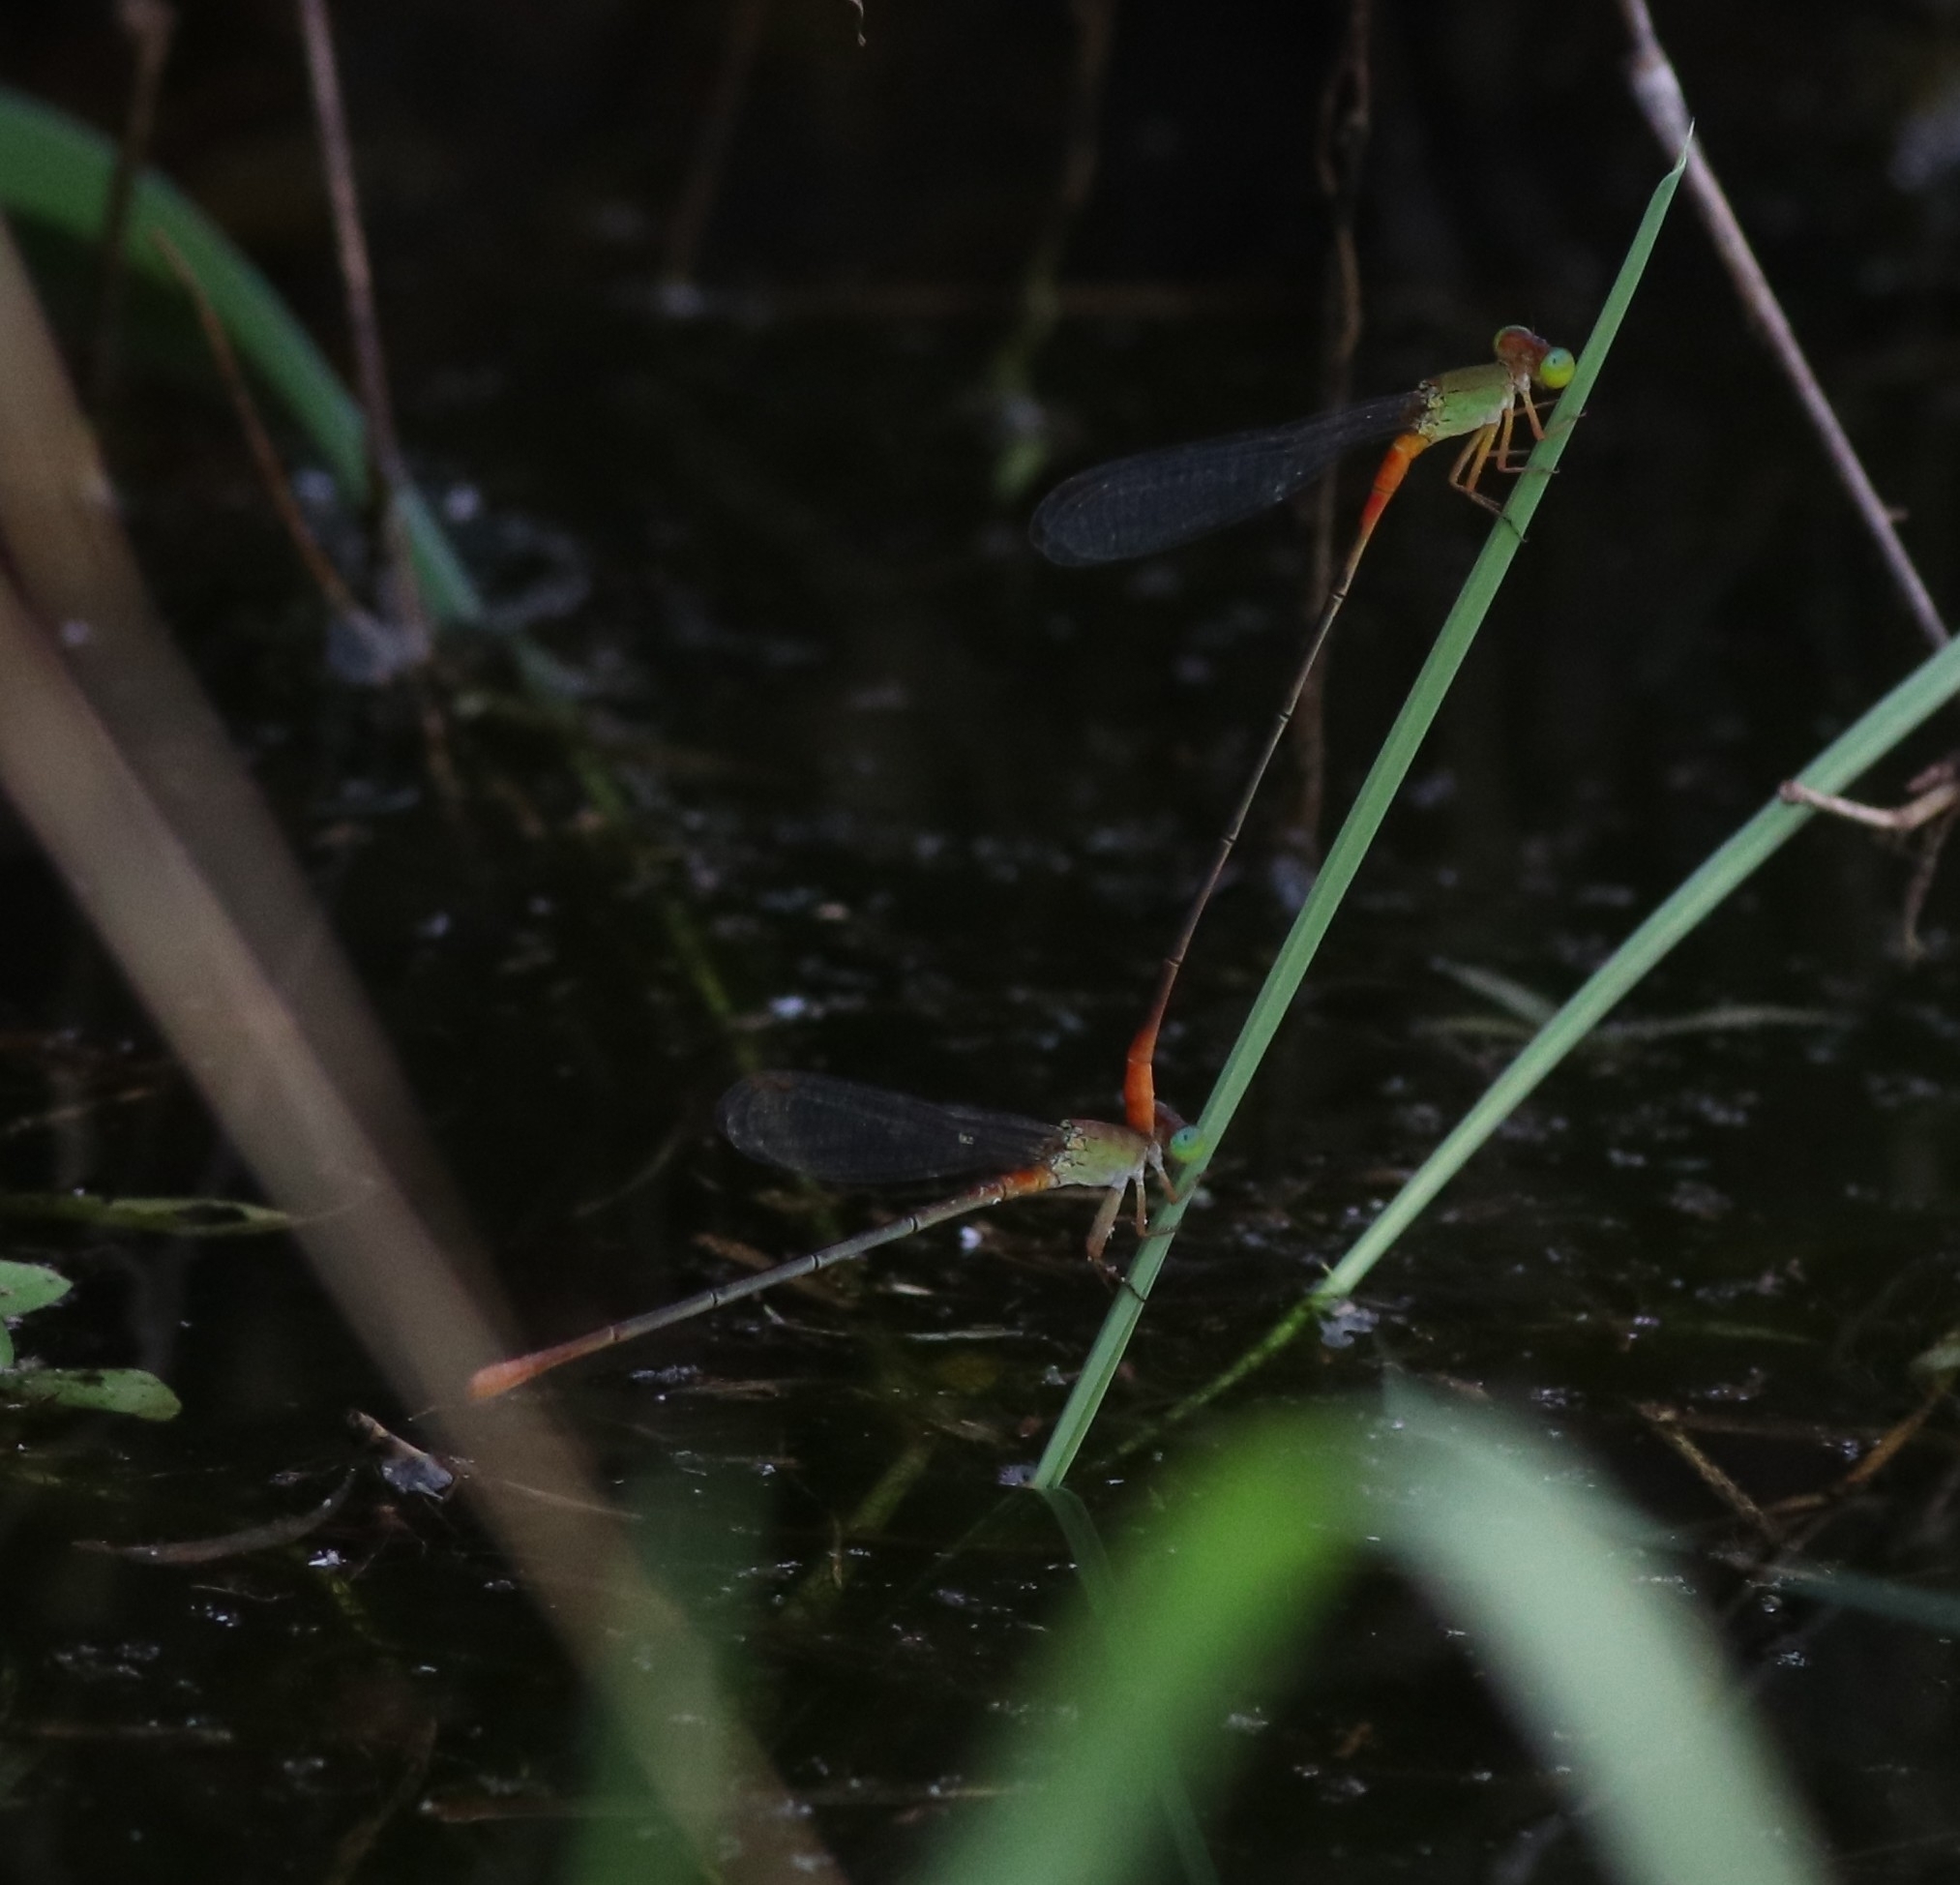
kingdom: Animalia
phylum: Arthropoda
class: Insecta
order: Odonata
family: Coenagrionidae
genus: Ceriagrion
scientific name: Ceriagrion cerinorubellum
